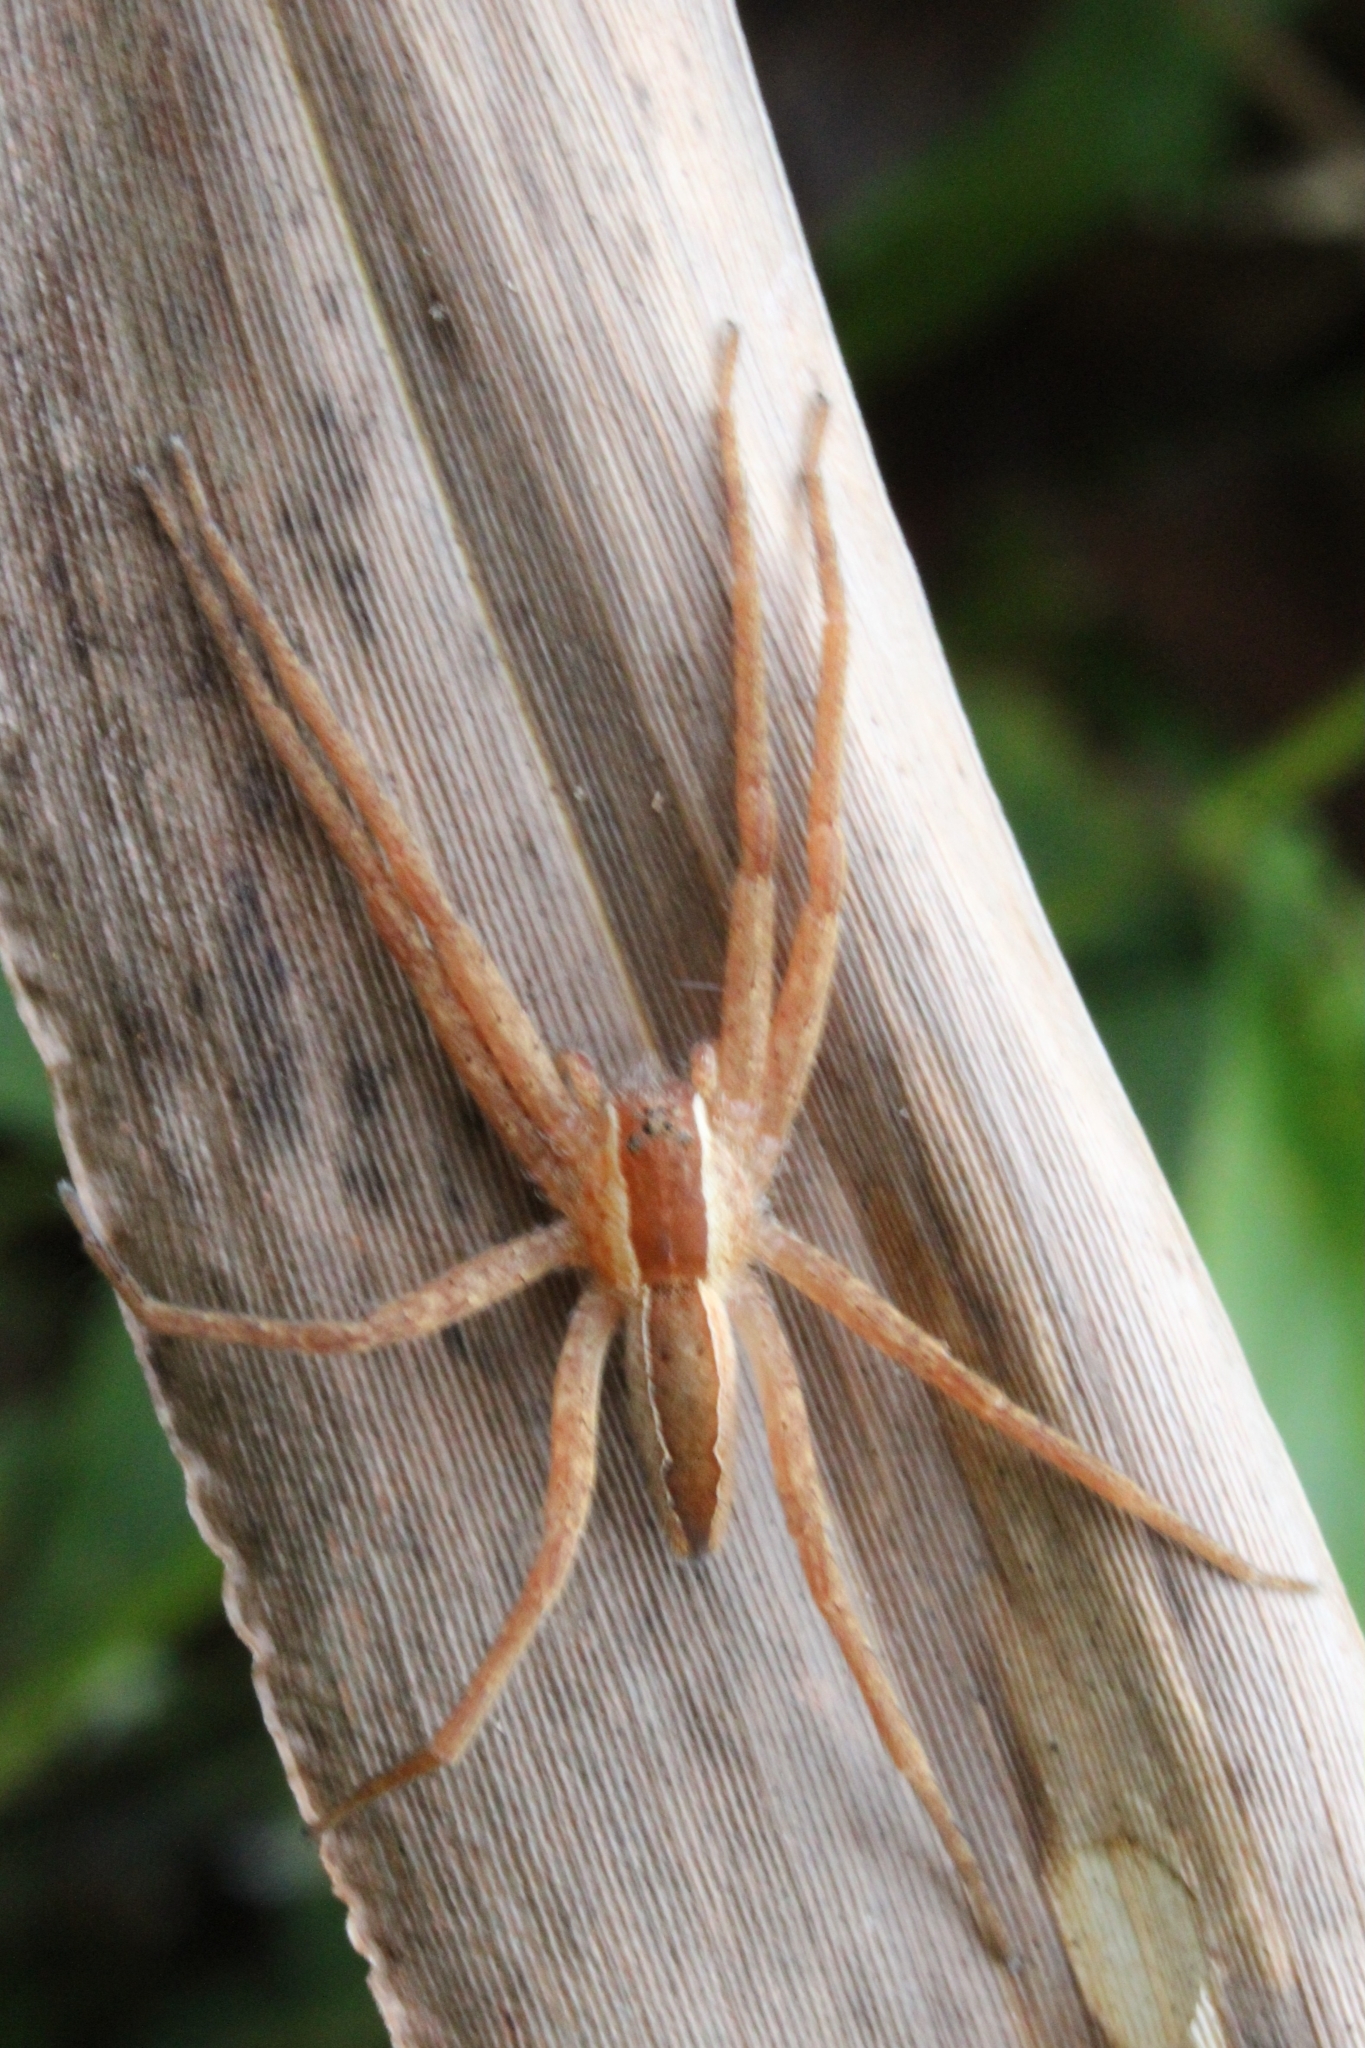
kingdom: Animalia
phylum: Arthropoda
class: Arachnida
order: Araneae
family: Pisauridae
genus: Pisaurina
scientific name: Pisaurina mira
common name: American nursery web spider
